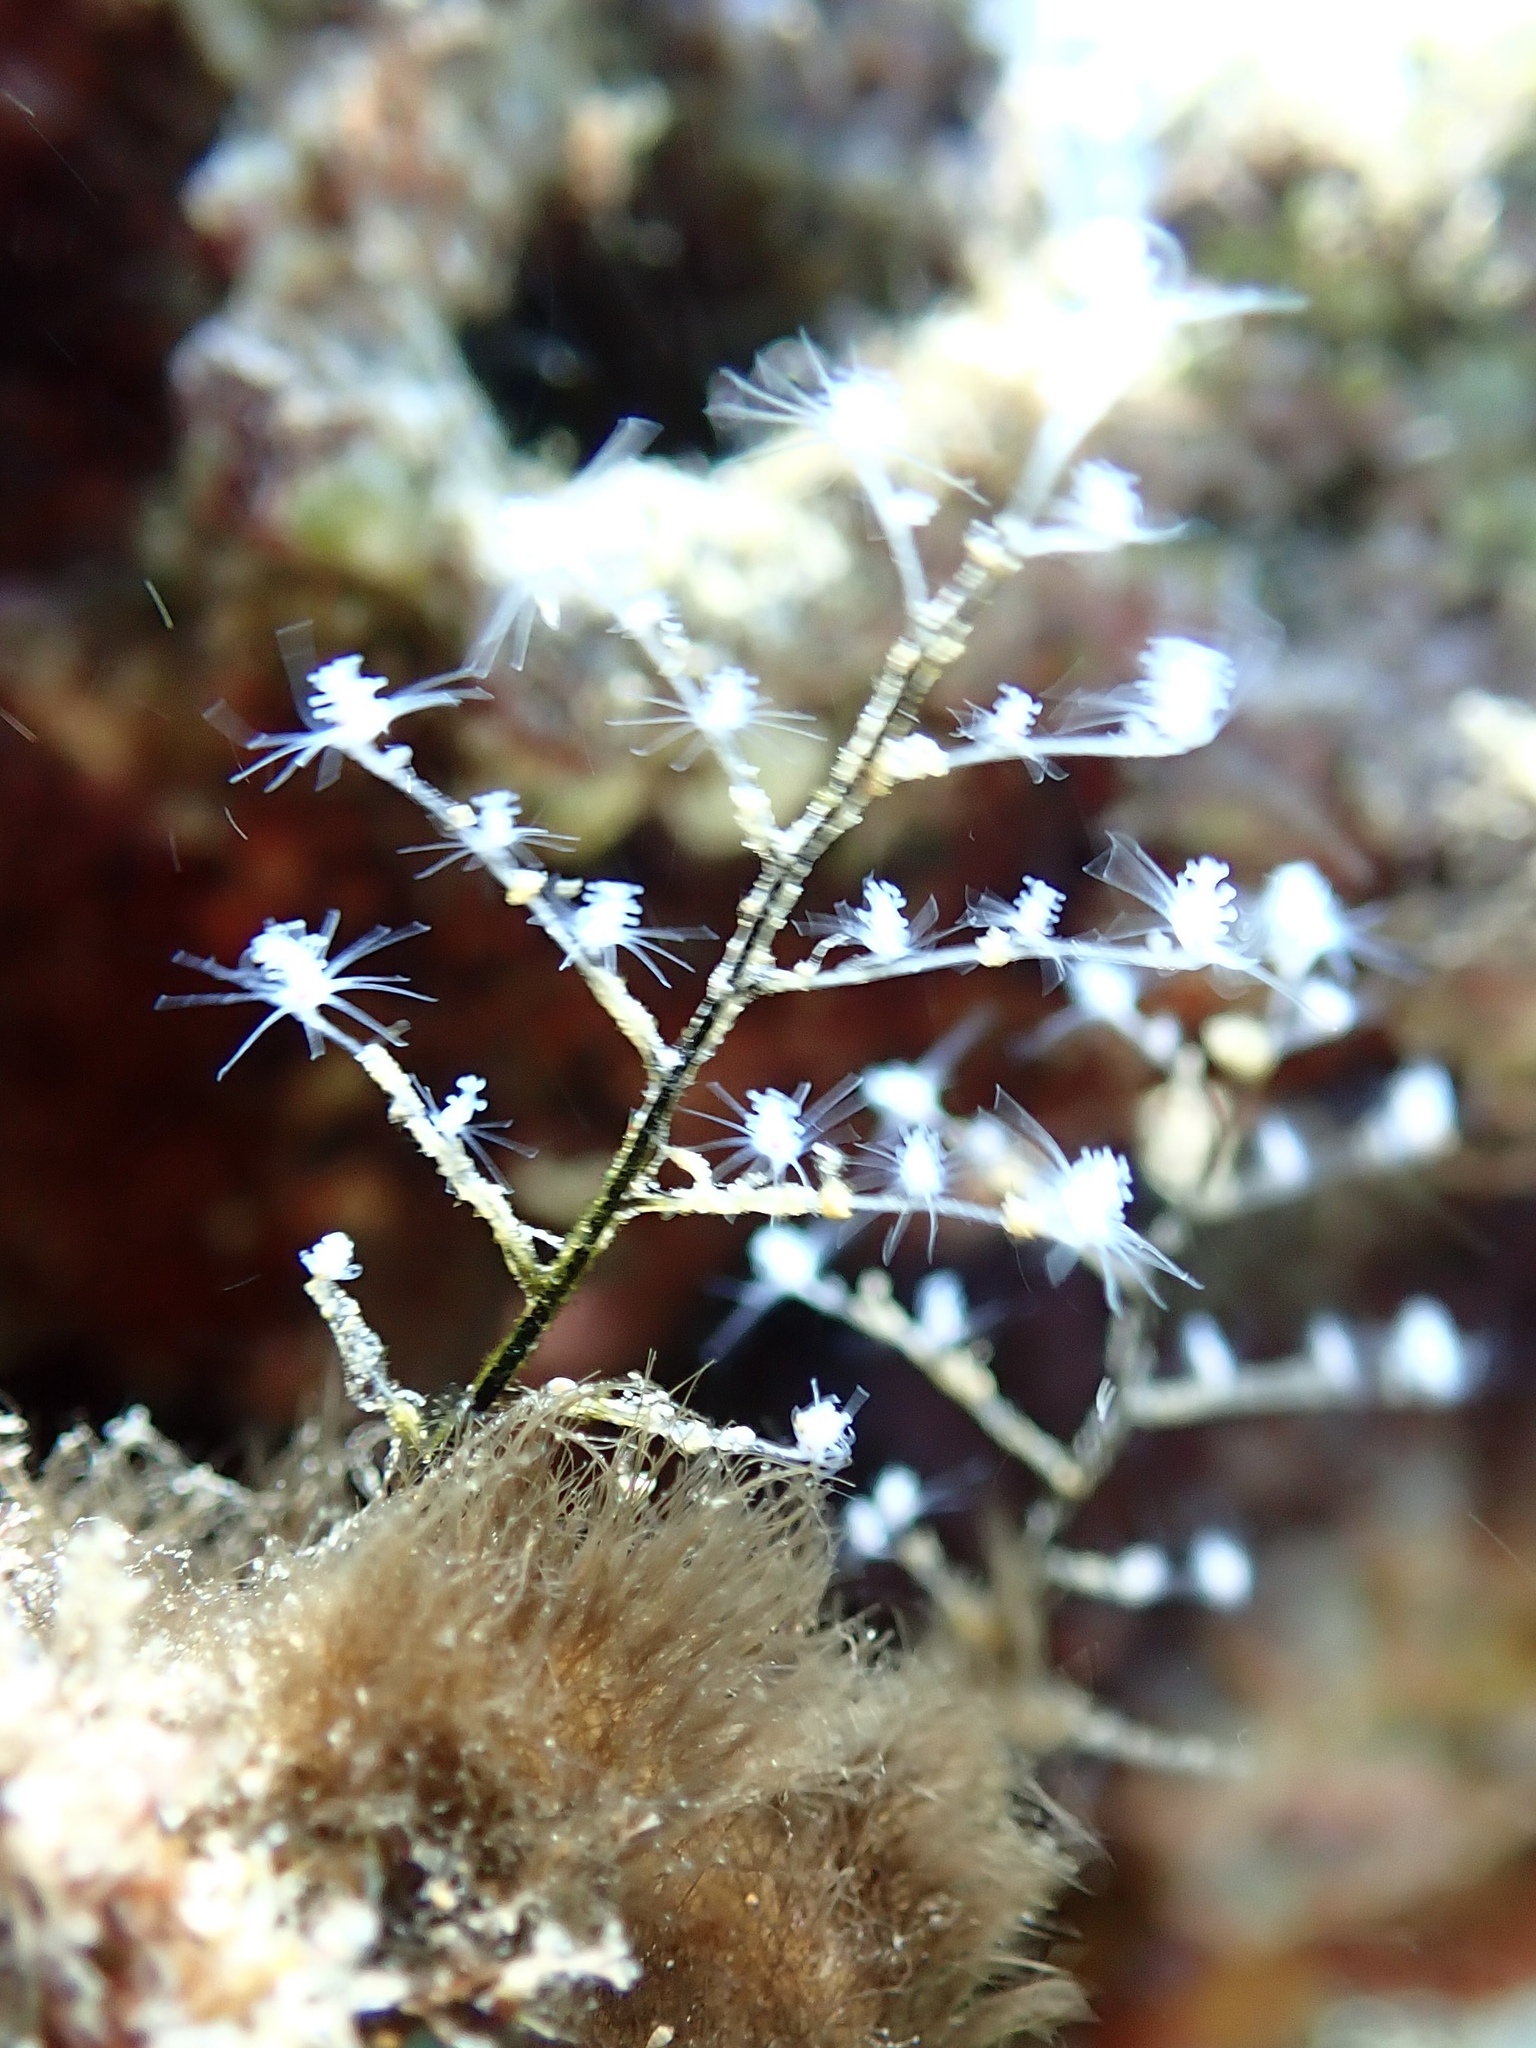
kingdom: Animalia
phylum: Cnidaria
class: Hydrozoa
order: Anthoathecata
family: Pennariidae
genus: Pennaria
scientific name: Pennaria disticha
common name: Feather hydroid
